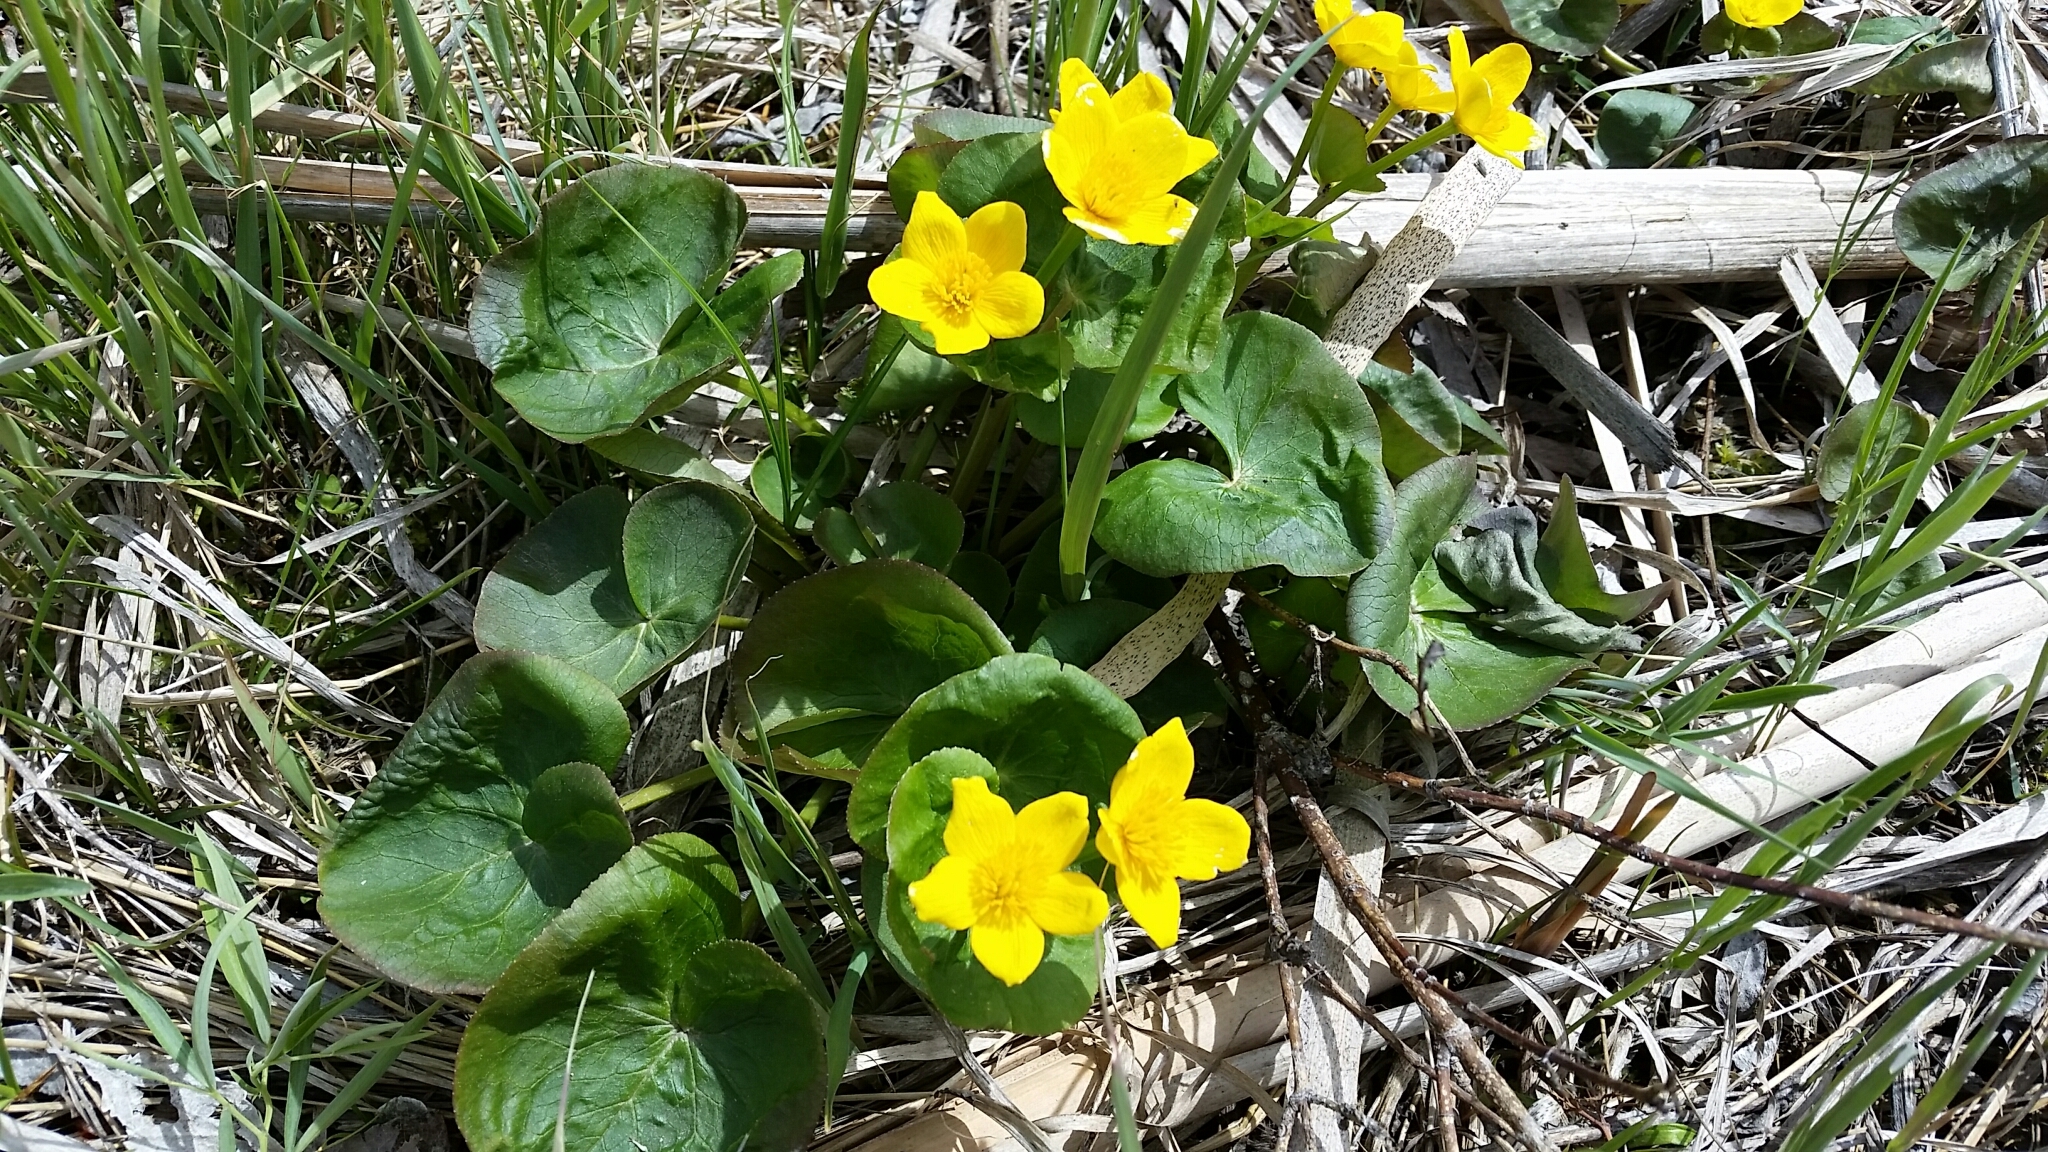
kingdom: Plantae
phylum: Tracheophyta
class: Magnoliopsida
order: Ranunculales
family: Ranunculaceae
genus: Caltha
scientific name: Caltha palustris
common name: Marsh marigold
